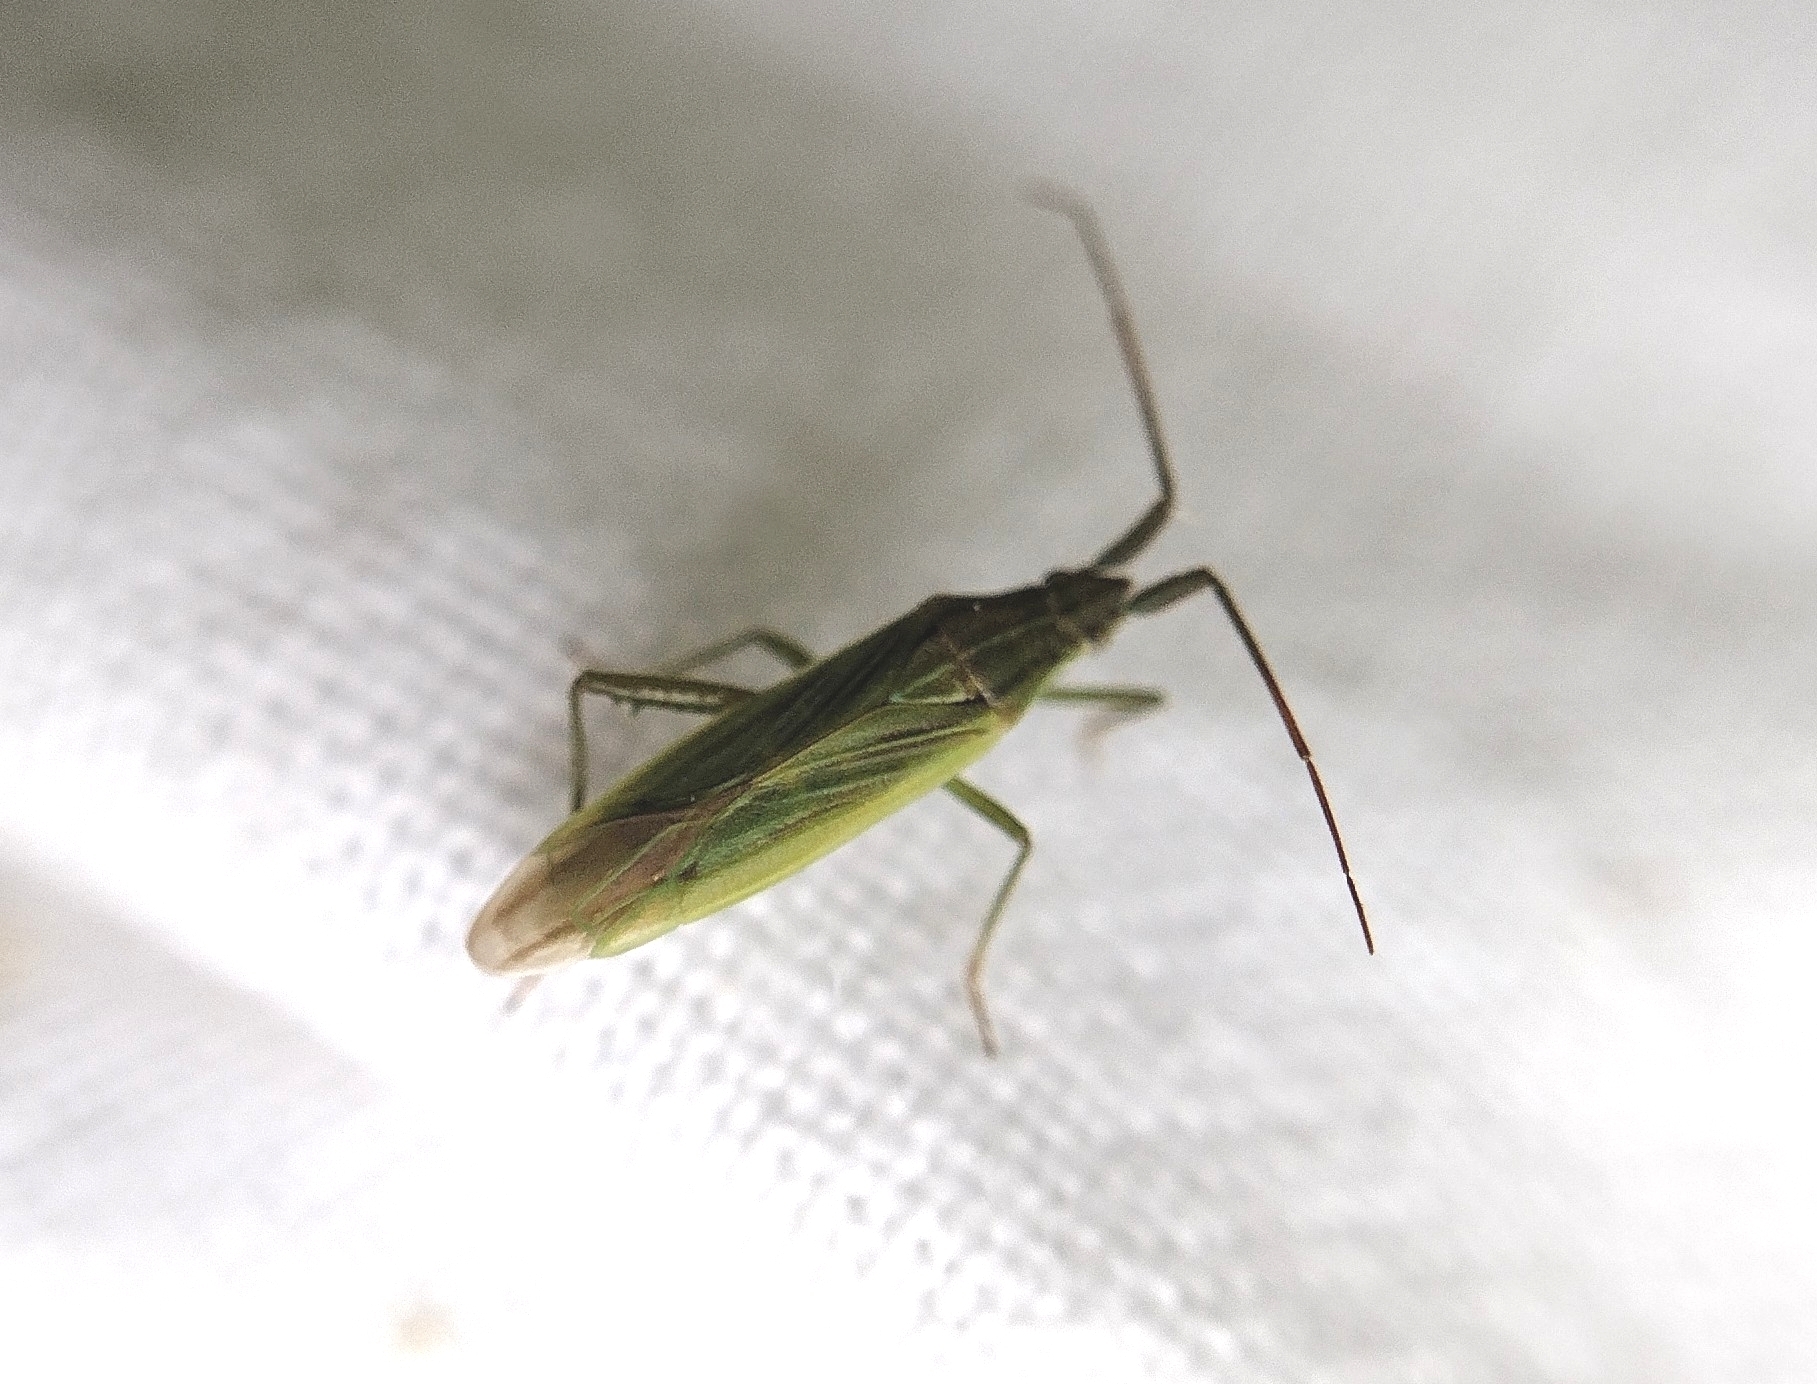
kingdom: Animalia
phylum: Arthropoda
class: Insecta
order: Hemiptera
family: Miridae
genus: Stenodema
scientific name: Stenodema calcarata
